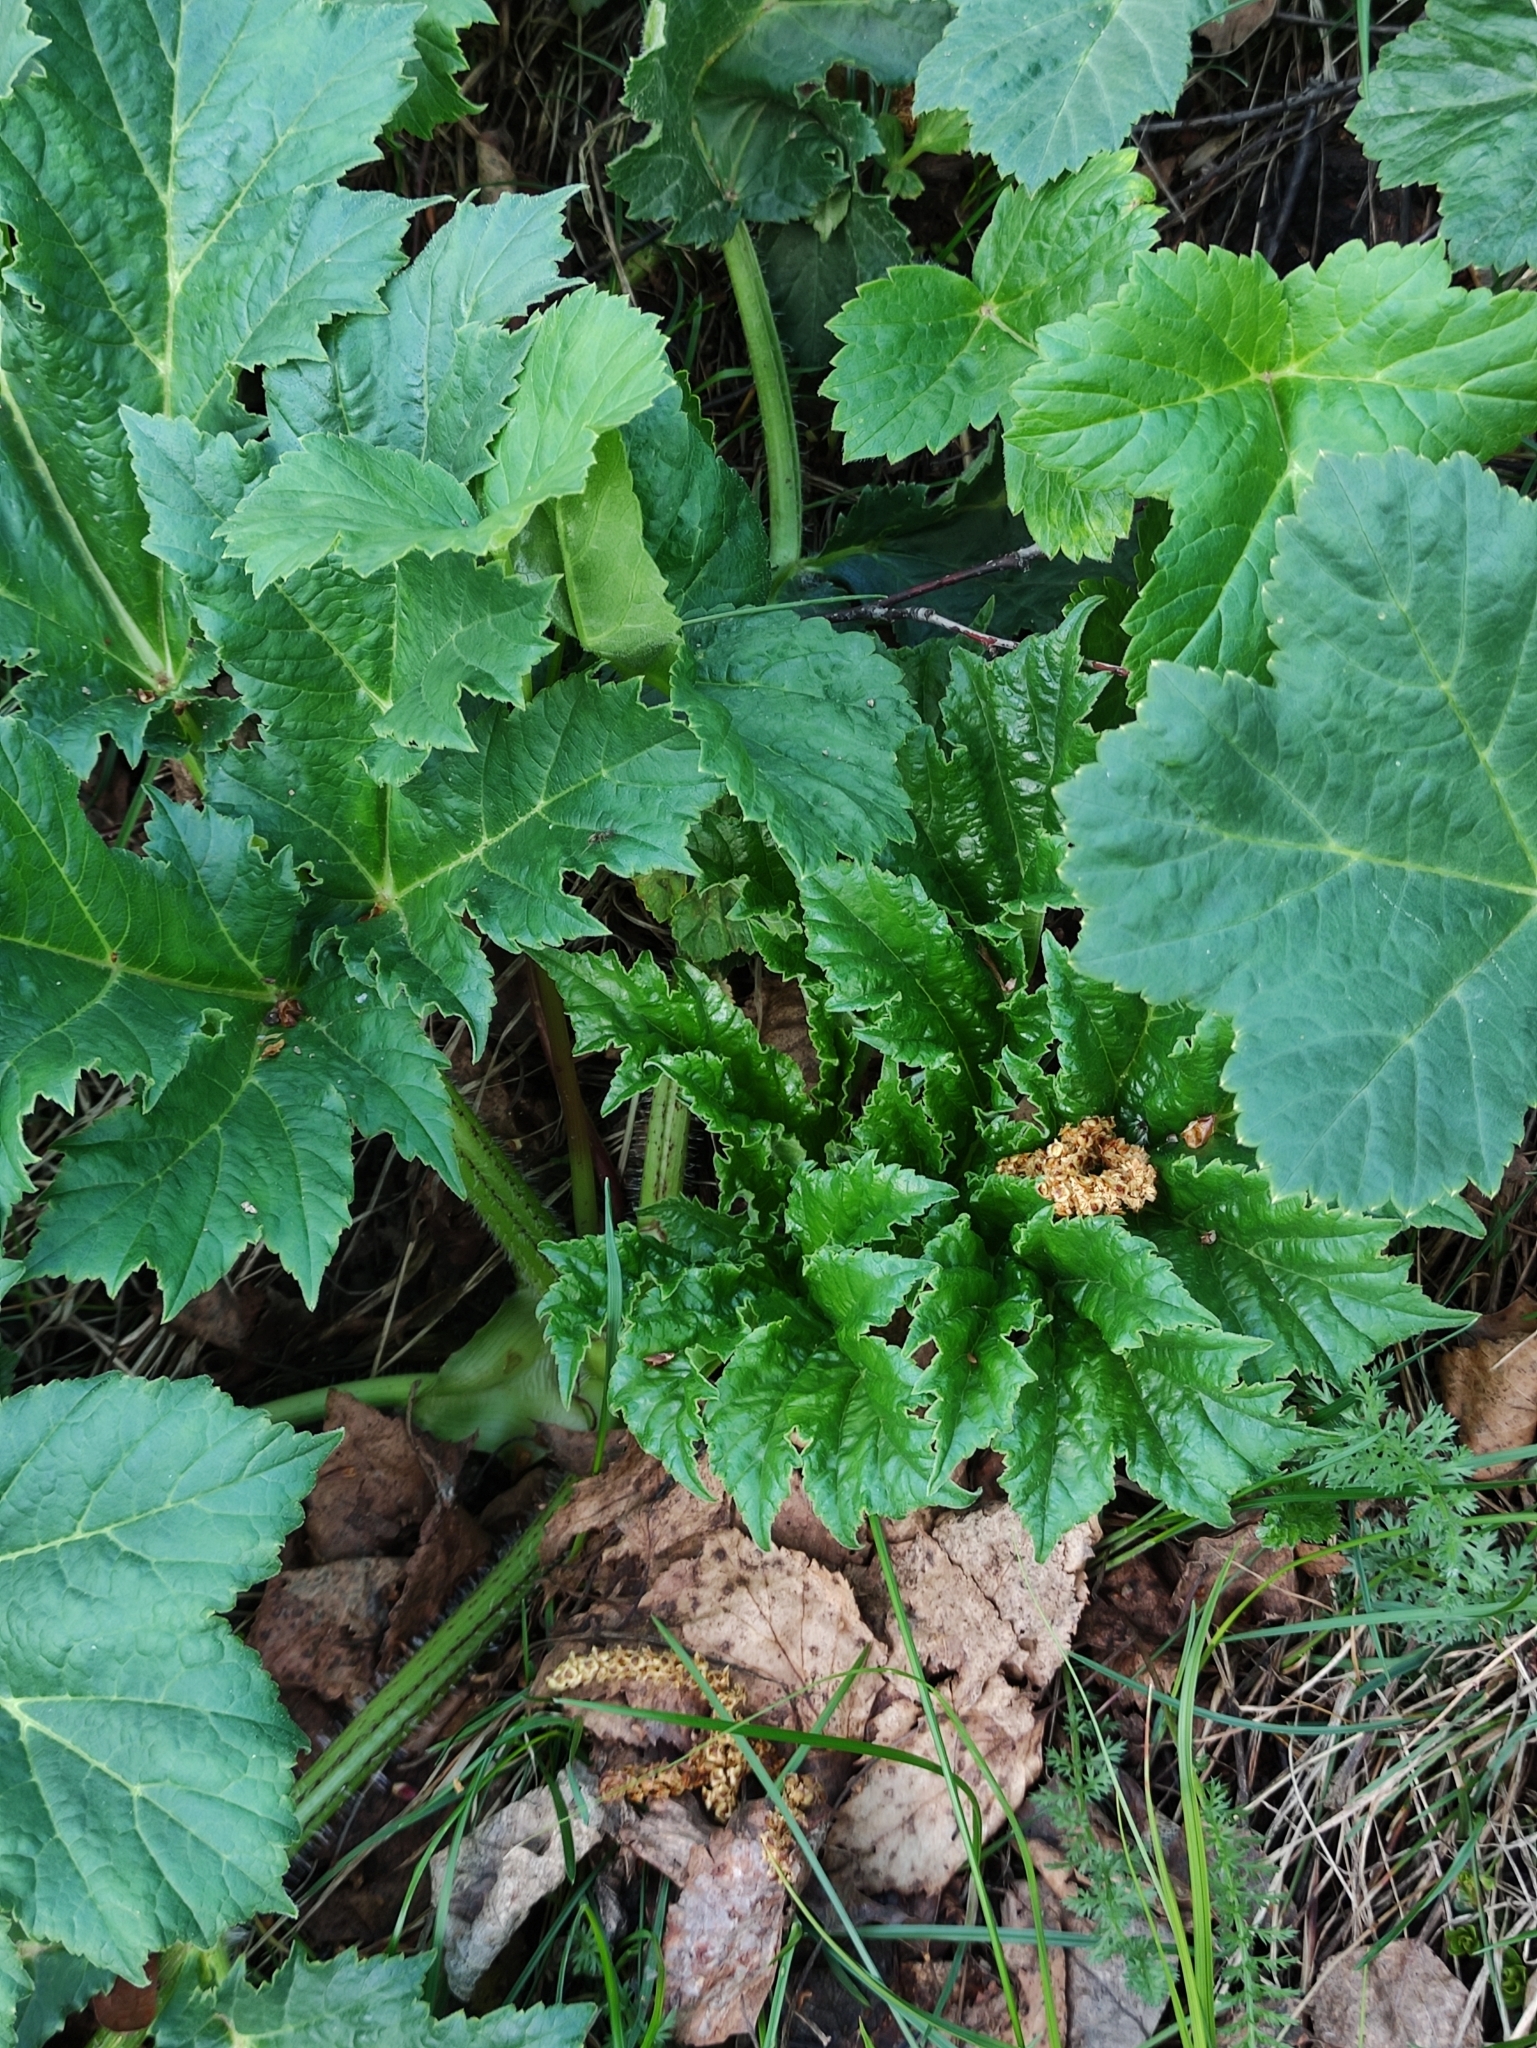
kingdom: Plantae
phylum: Tracheophyta
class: Magnoliopsida
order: Apiales
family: Apiaceae
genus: Heracleum
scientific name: Heracleum sosnowskyi
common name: Sosnowsky's hogweed
